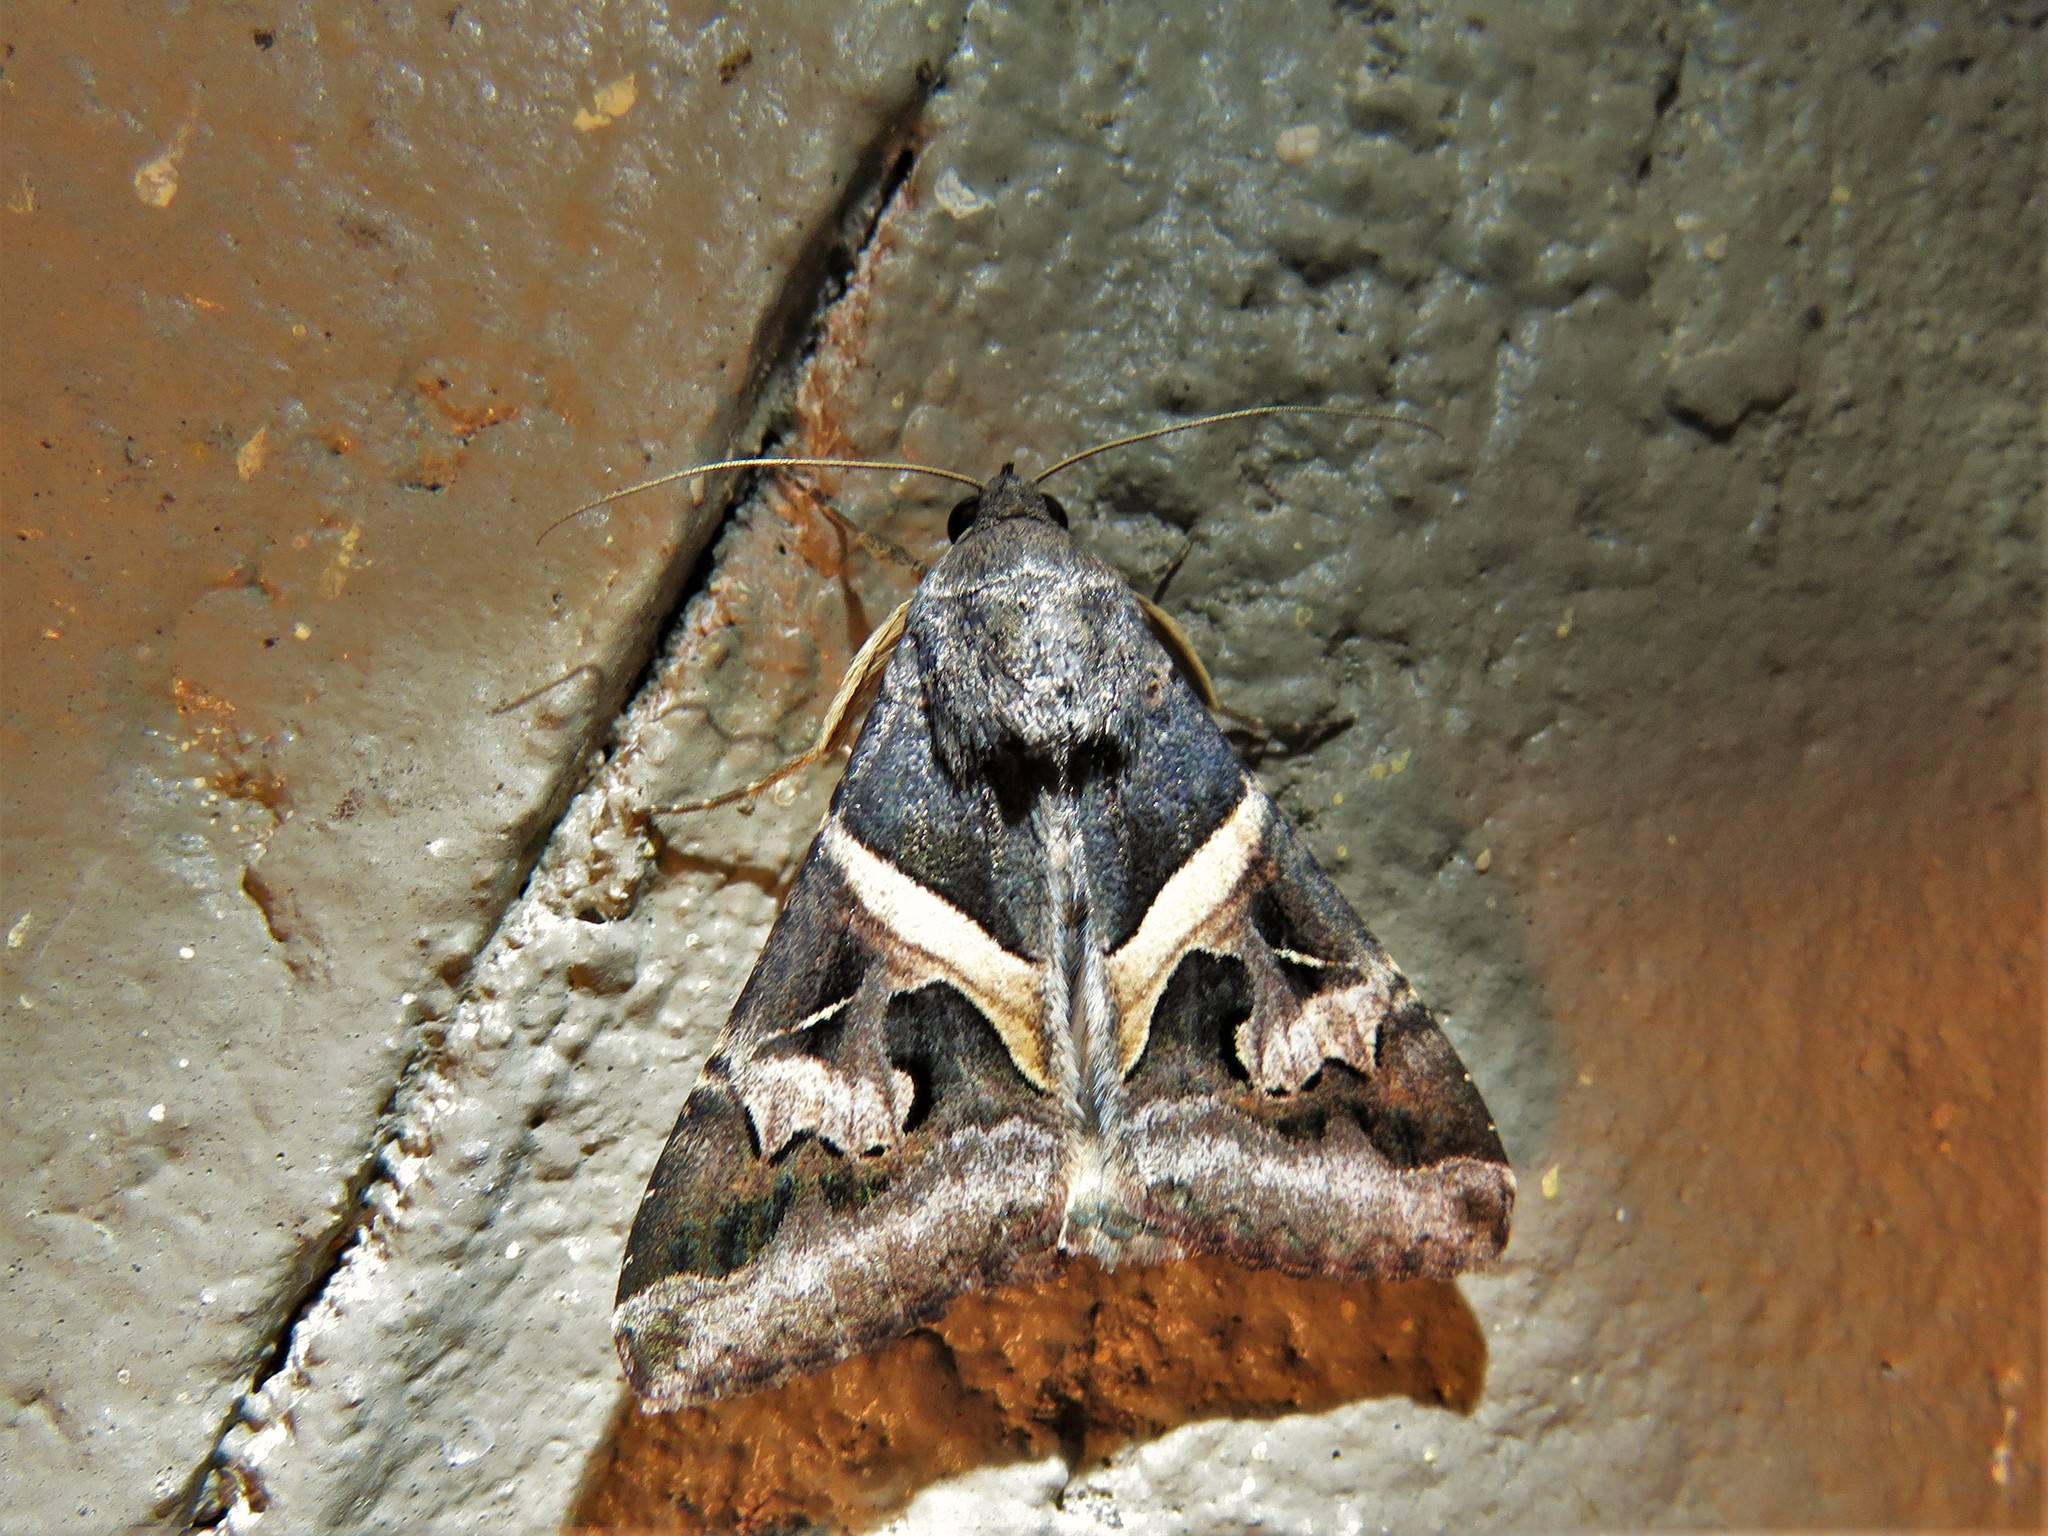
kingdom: Animalia
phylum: Arthropoda
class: Insecta
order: Lepidoptera
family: Erebidae
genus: Melipotis
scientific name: Melipotis indomita
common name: Moth
